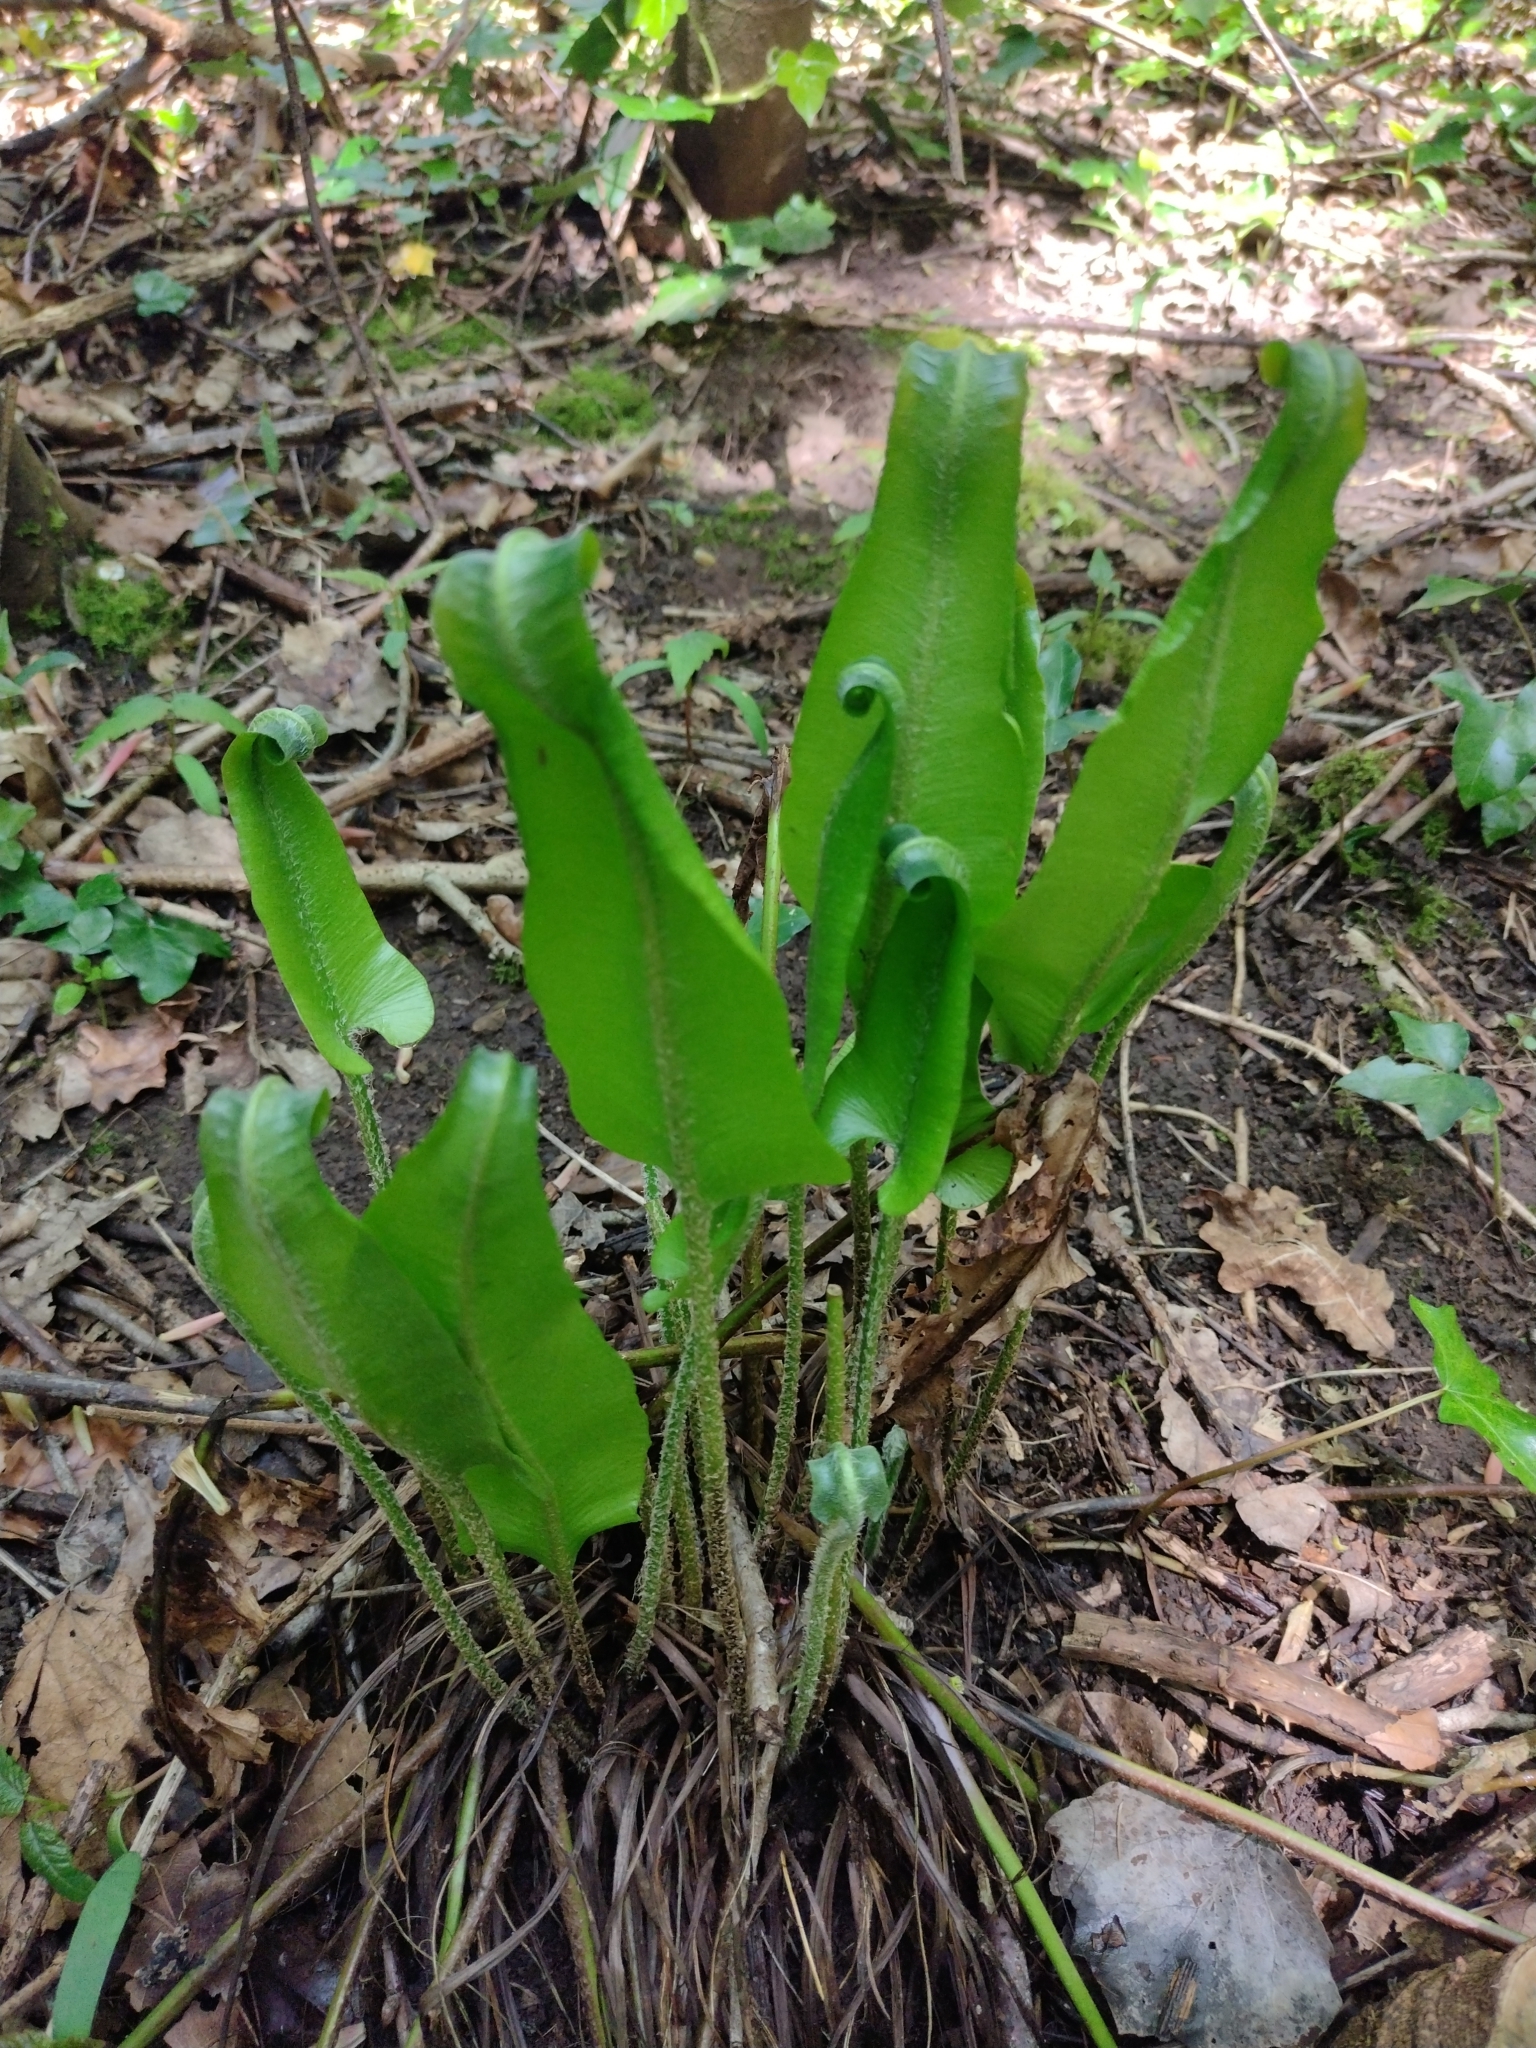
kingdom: Plantae
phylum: Tracheophyta
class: Polypodiopsida
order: Polypodiales
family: Aspleniaceae
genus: Asplenium
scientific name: Asplenium scolopendrium
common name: Hart's-tongue fern
